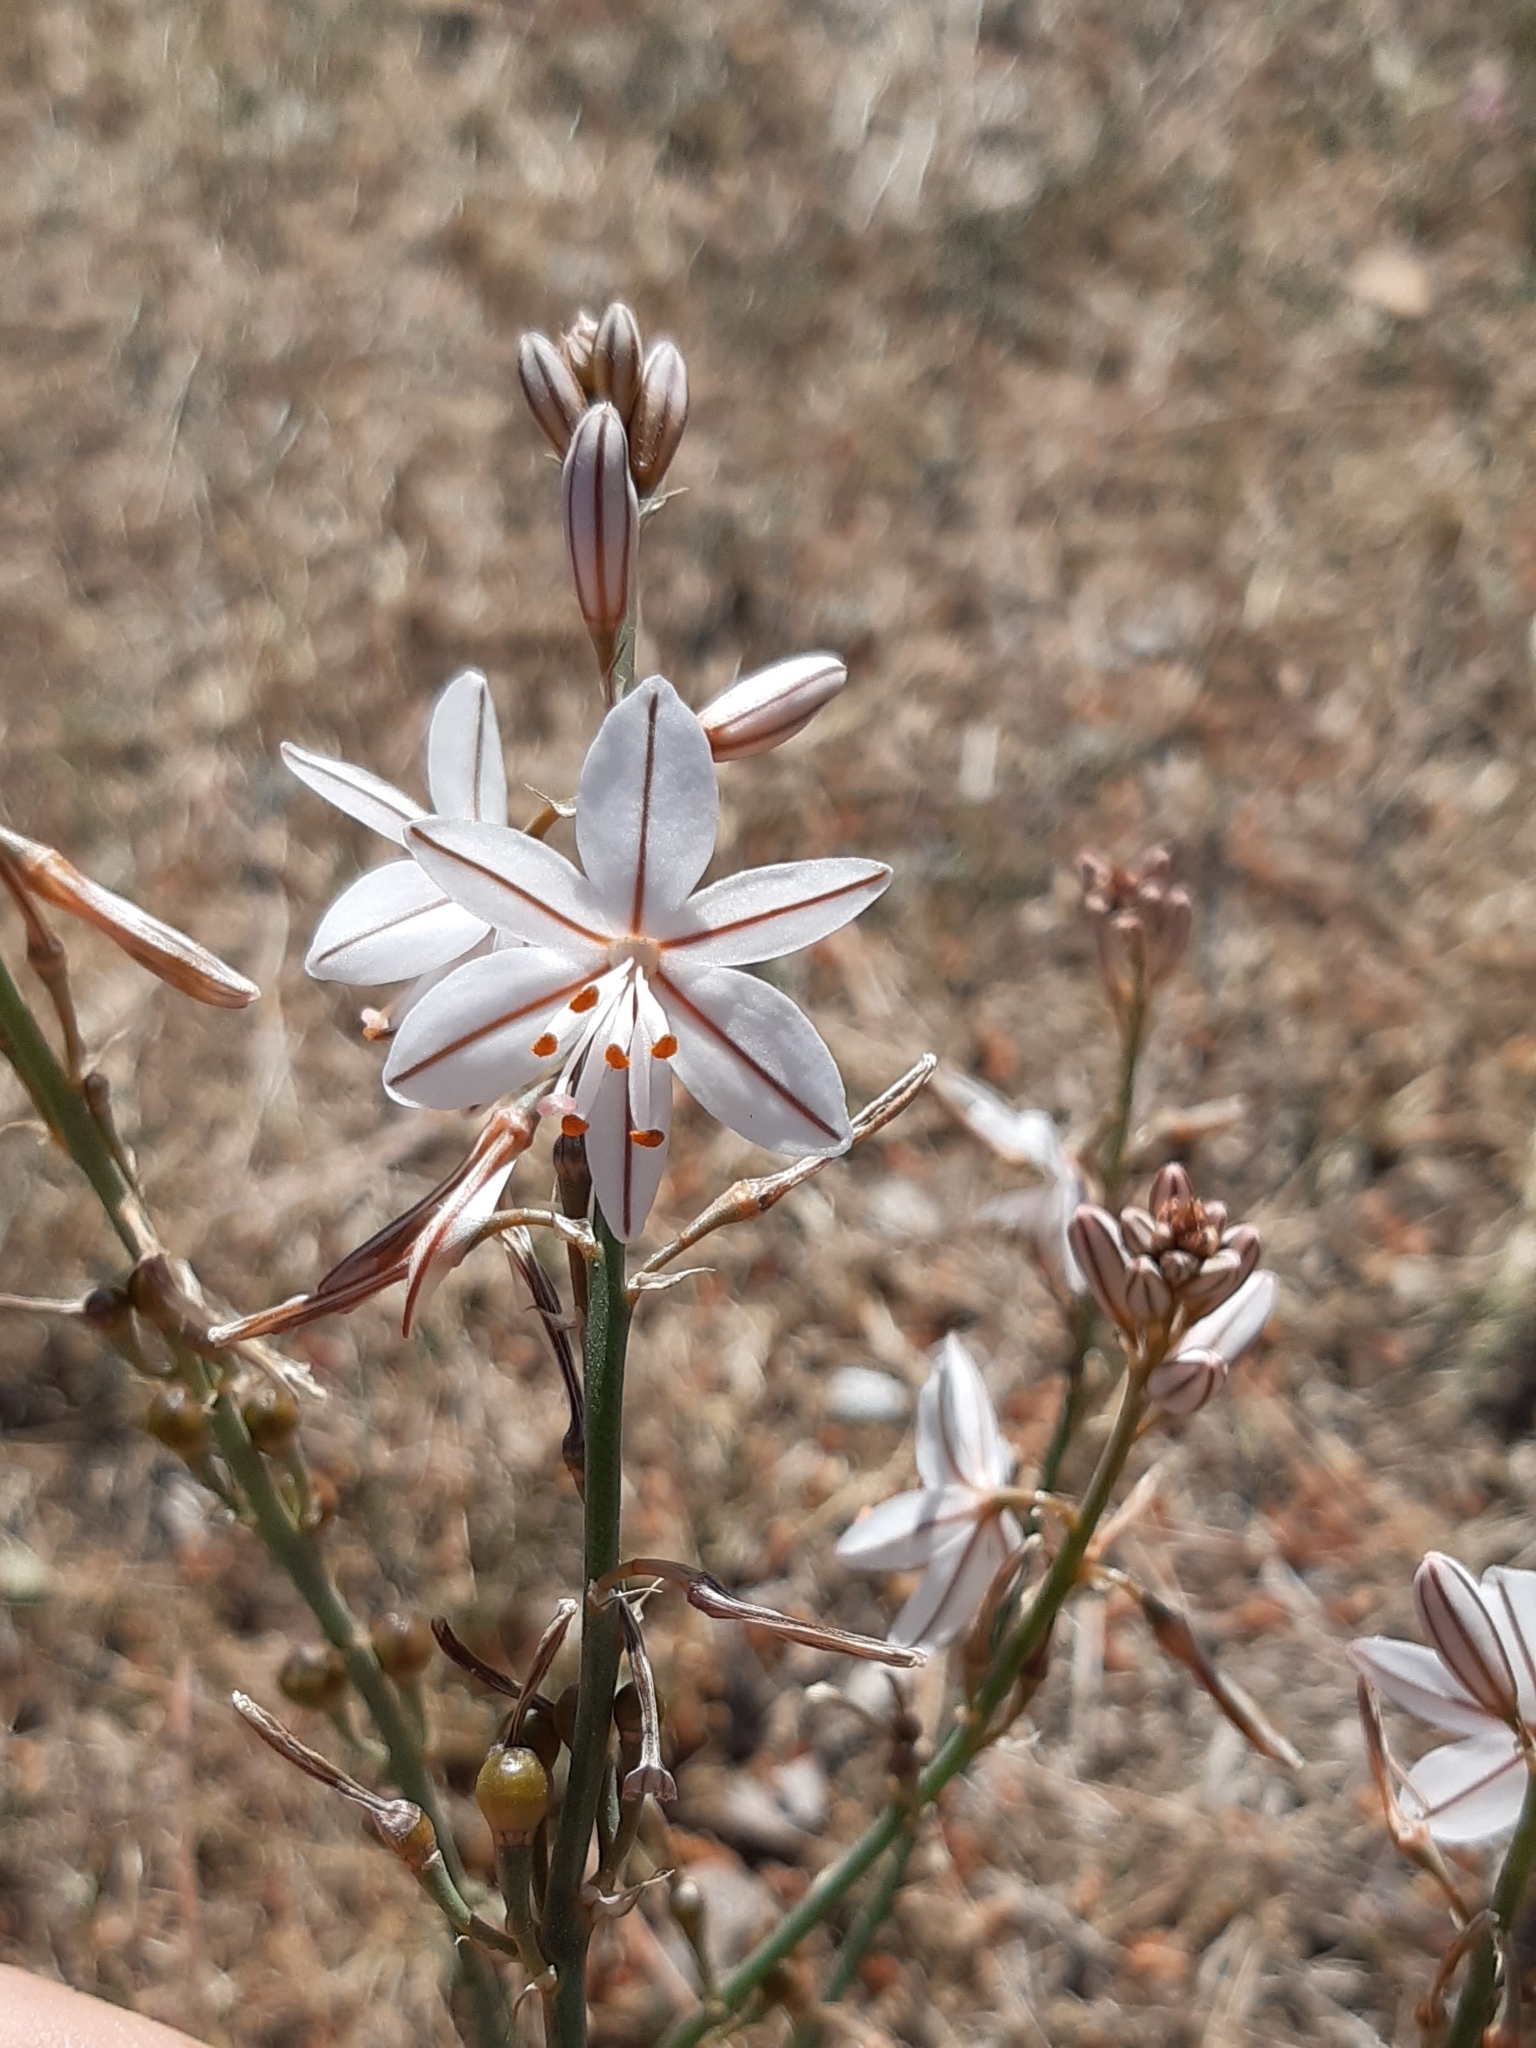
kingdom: Plantae
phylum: Tracheophyta
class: Liliopsida
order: Asparagales
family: Asphodelaceae
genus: Asphodelus
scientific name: Asphodelus fistulosus
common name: Onionweed
